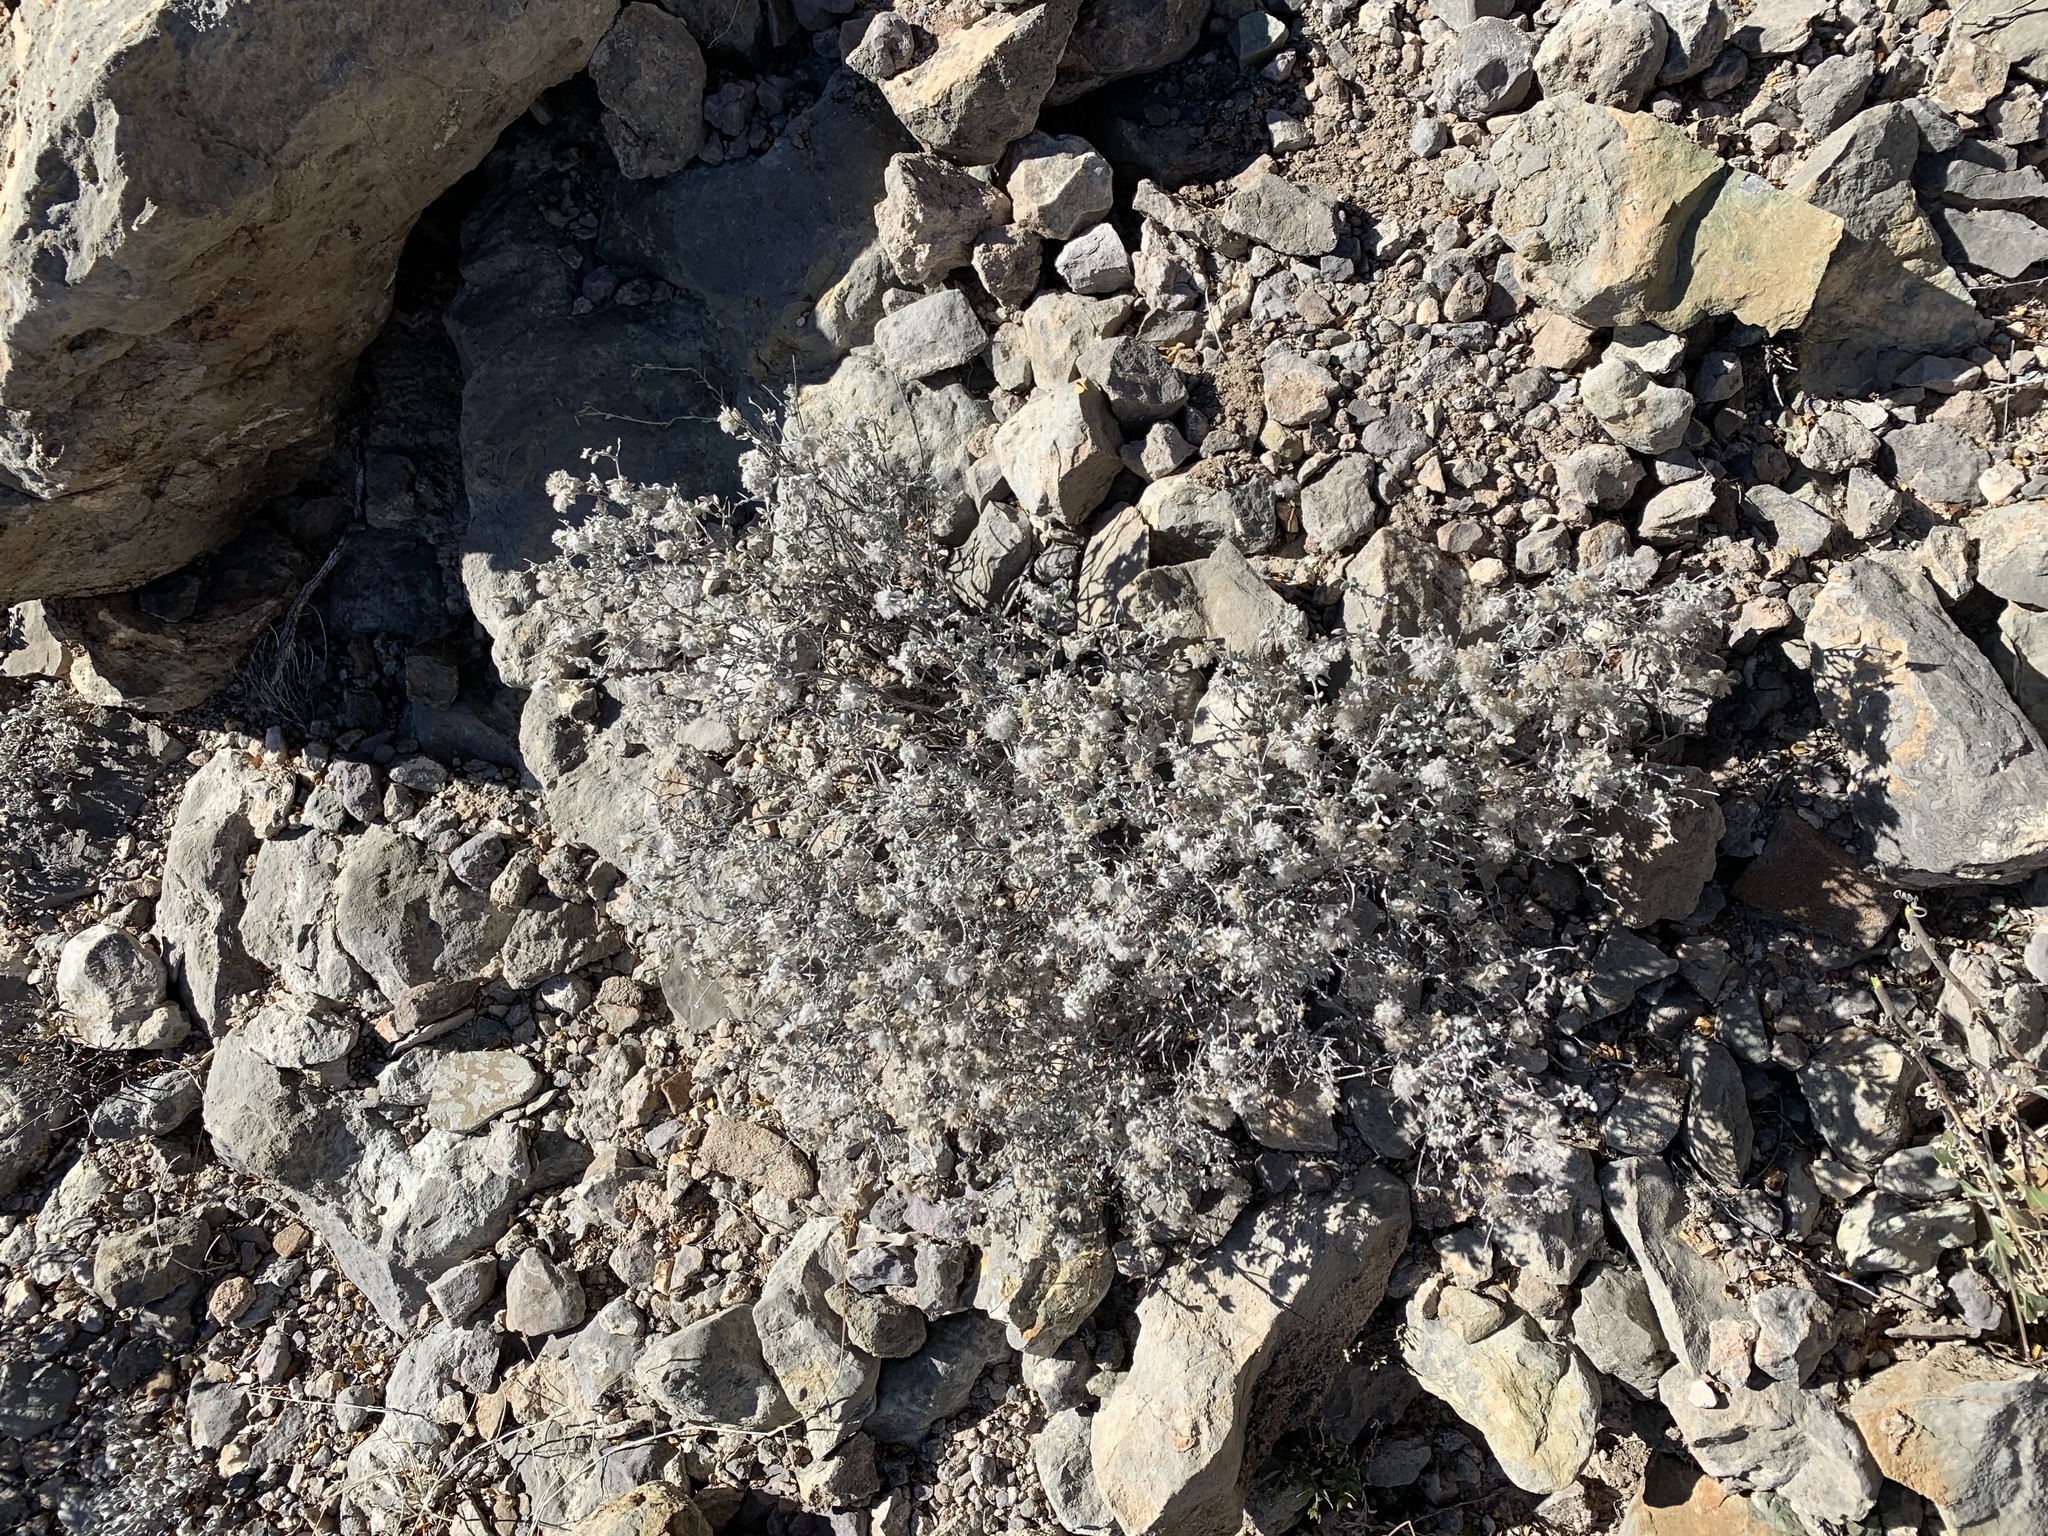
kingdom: Plantae
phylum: Tracheophyta
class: Magnoliopsida
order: Boraginales
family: Ehretiaceae
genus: Tiquilia
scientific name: Tiquilia greggii
